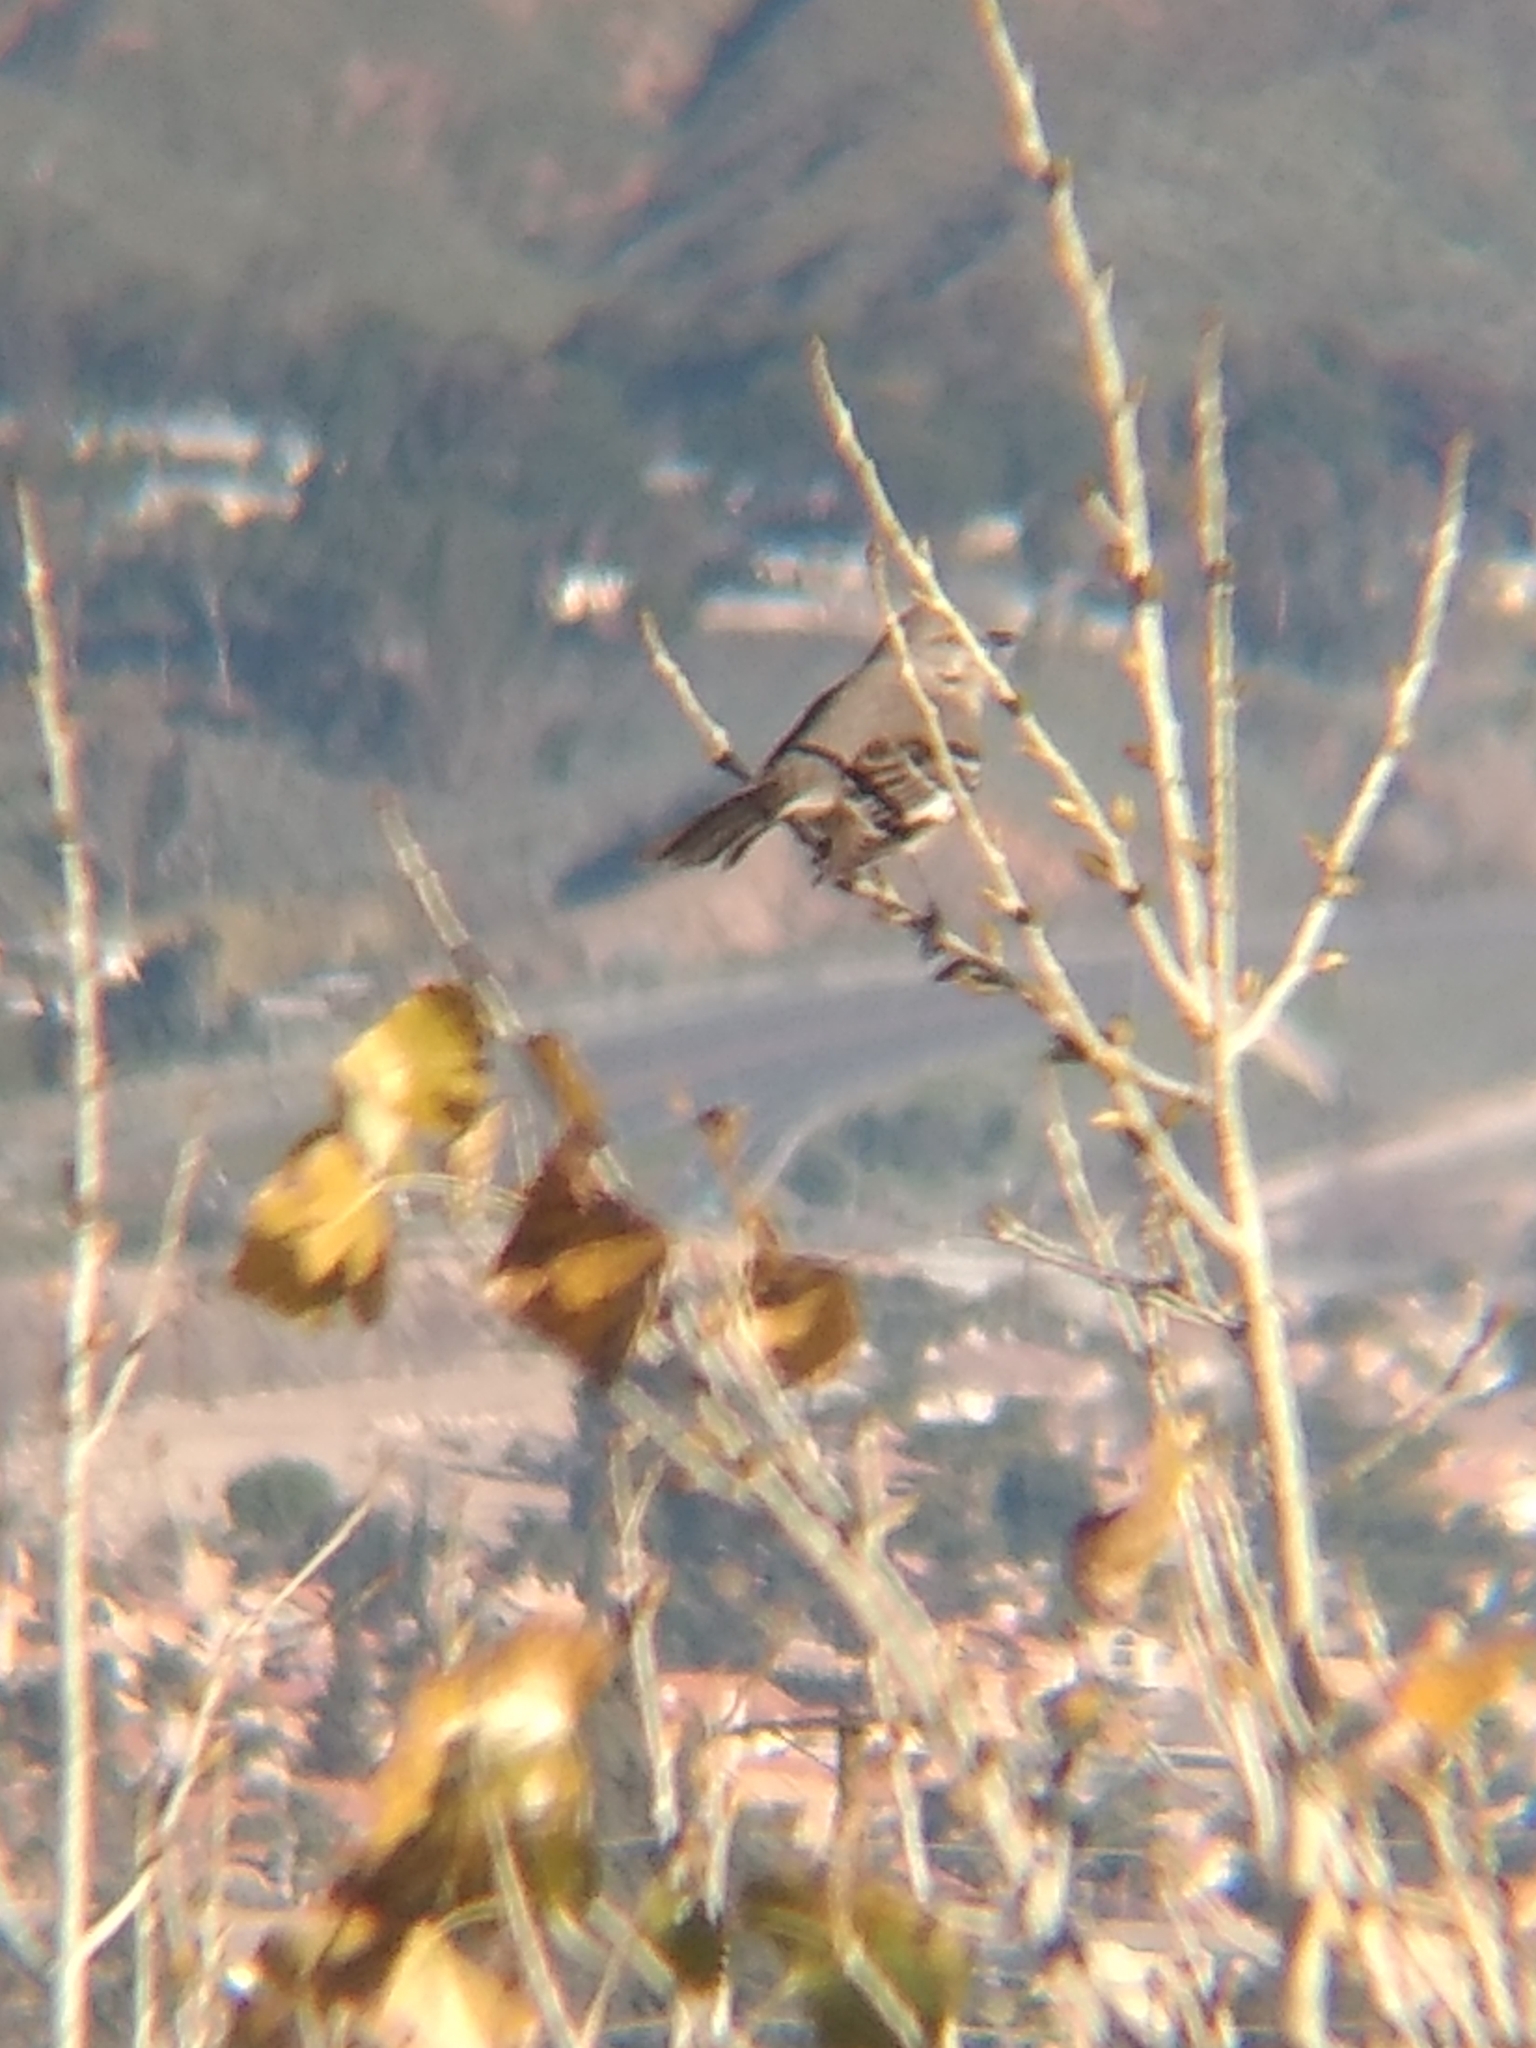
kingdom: Animalia
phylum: Chordata
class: Aves
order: Passeriformes
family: Mimidae
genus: Mimus
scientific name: Mimus polyglottos
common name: Northern mockingbird
